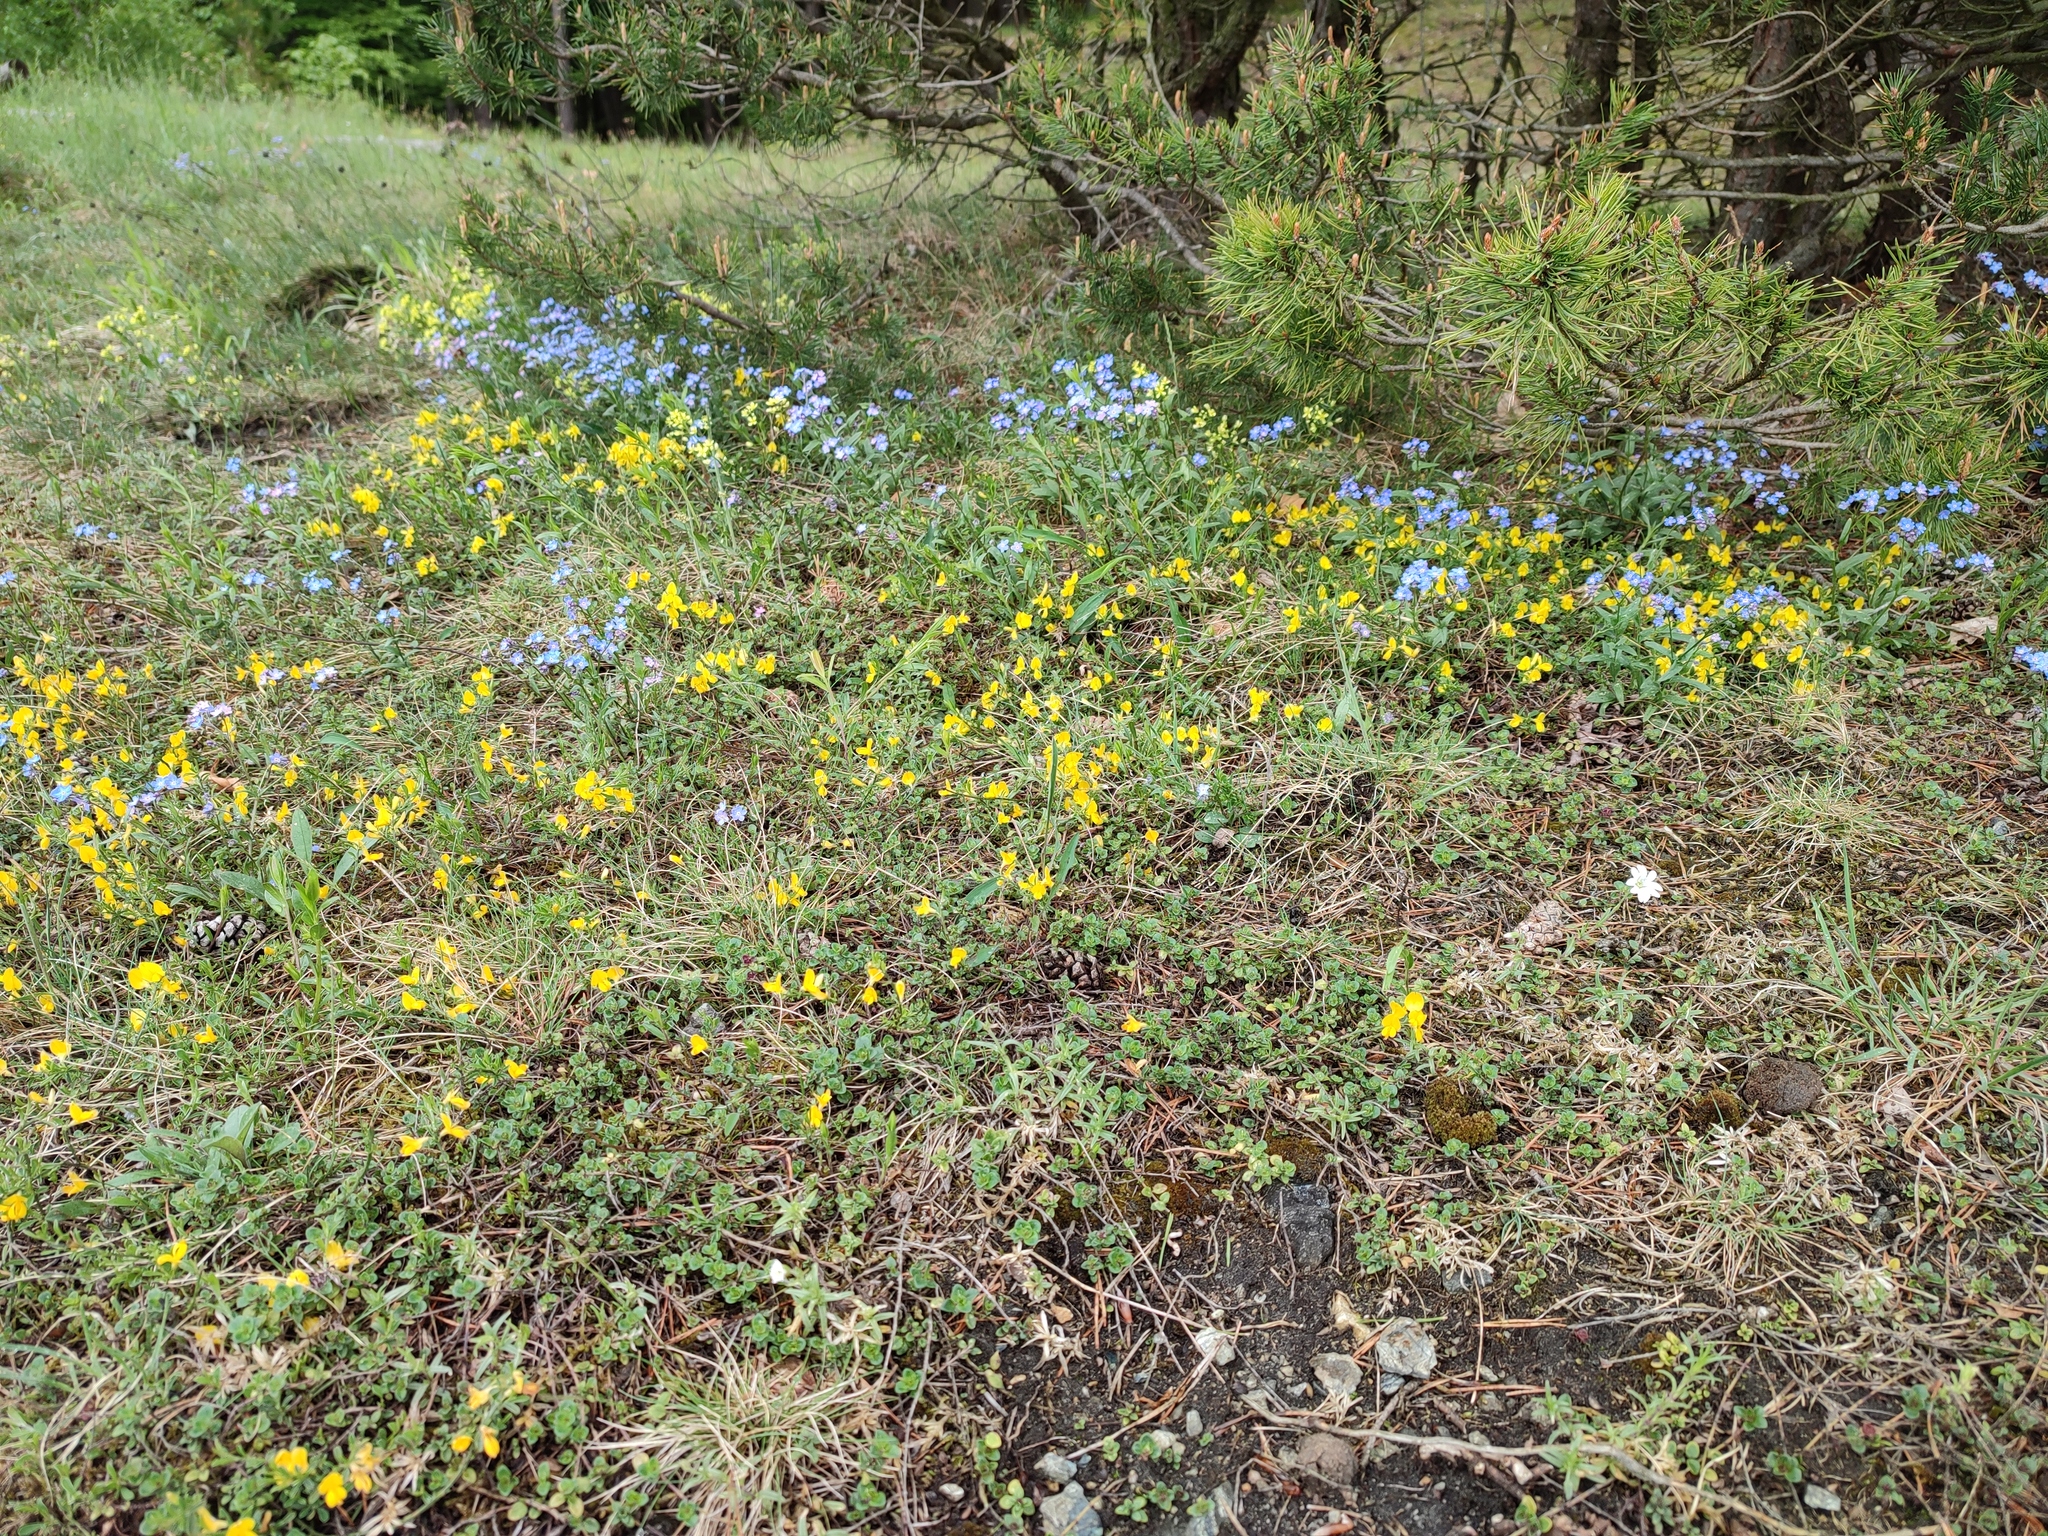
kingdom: Plantae
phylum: Tracheophyta
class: Magnoliopsida
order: Fabales
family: Fabaceae
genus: Genista
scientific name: Genista pilosa
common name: Hairy greenweed
